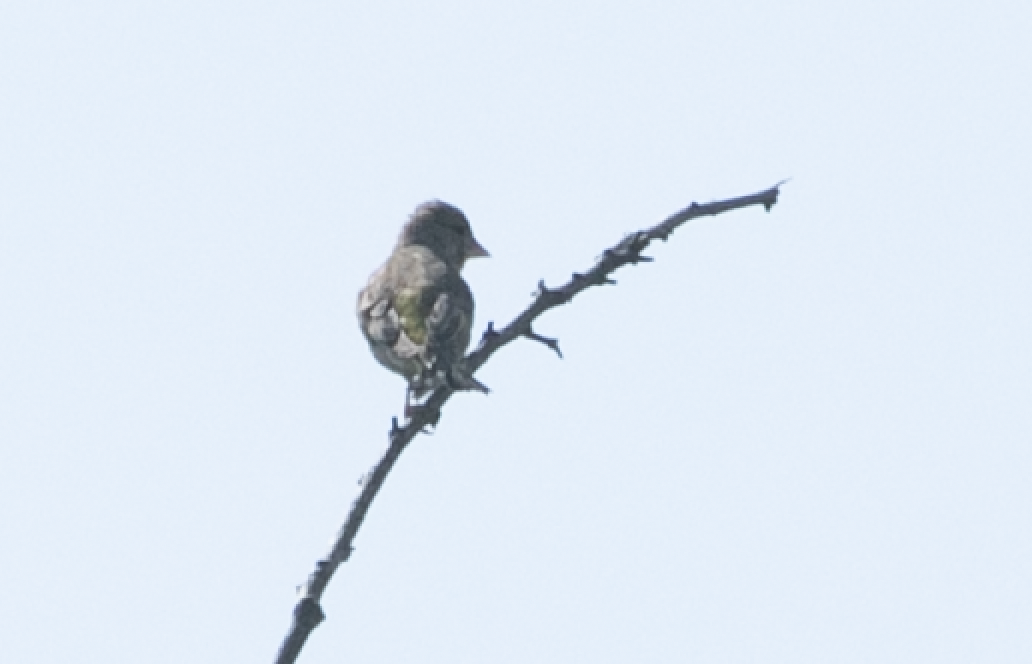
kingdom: Plantae
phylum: Tracheophyta
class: Liliopsida
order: Poales
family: Poaceae
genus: Chloris
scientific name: Chloris chloris
